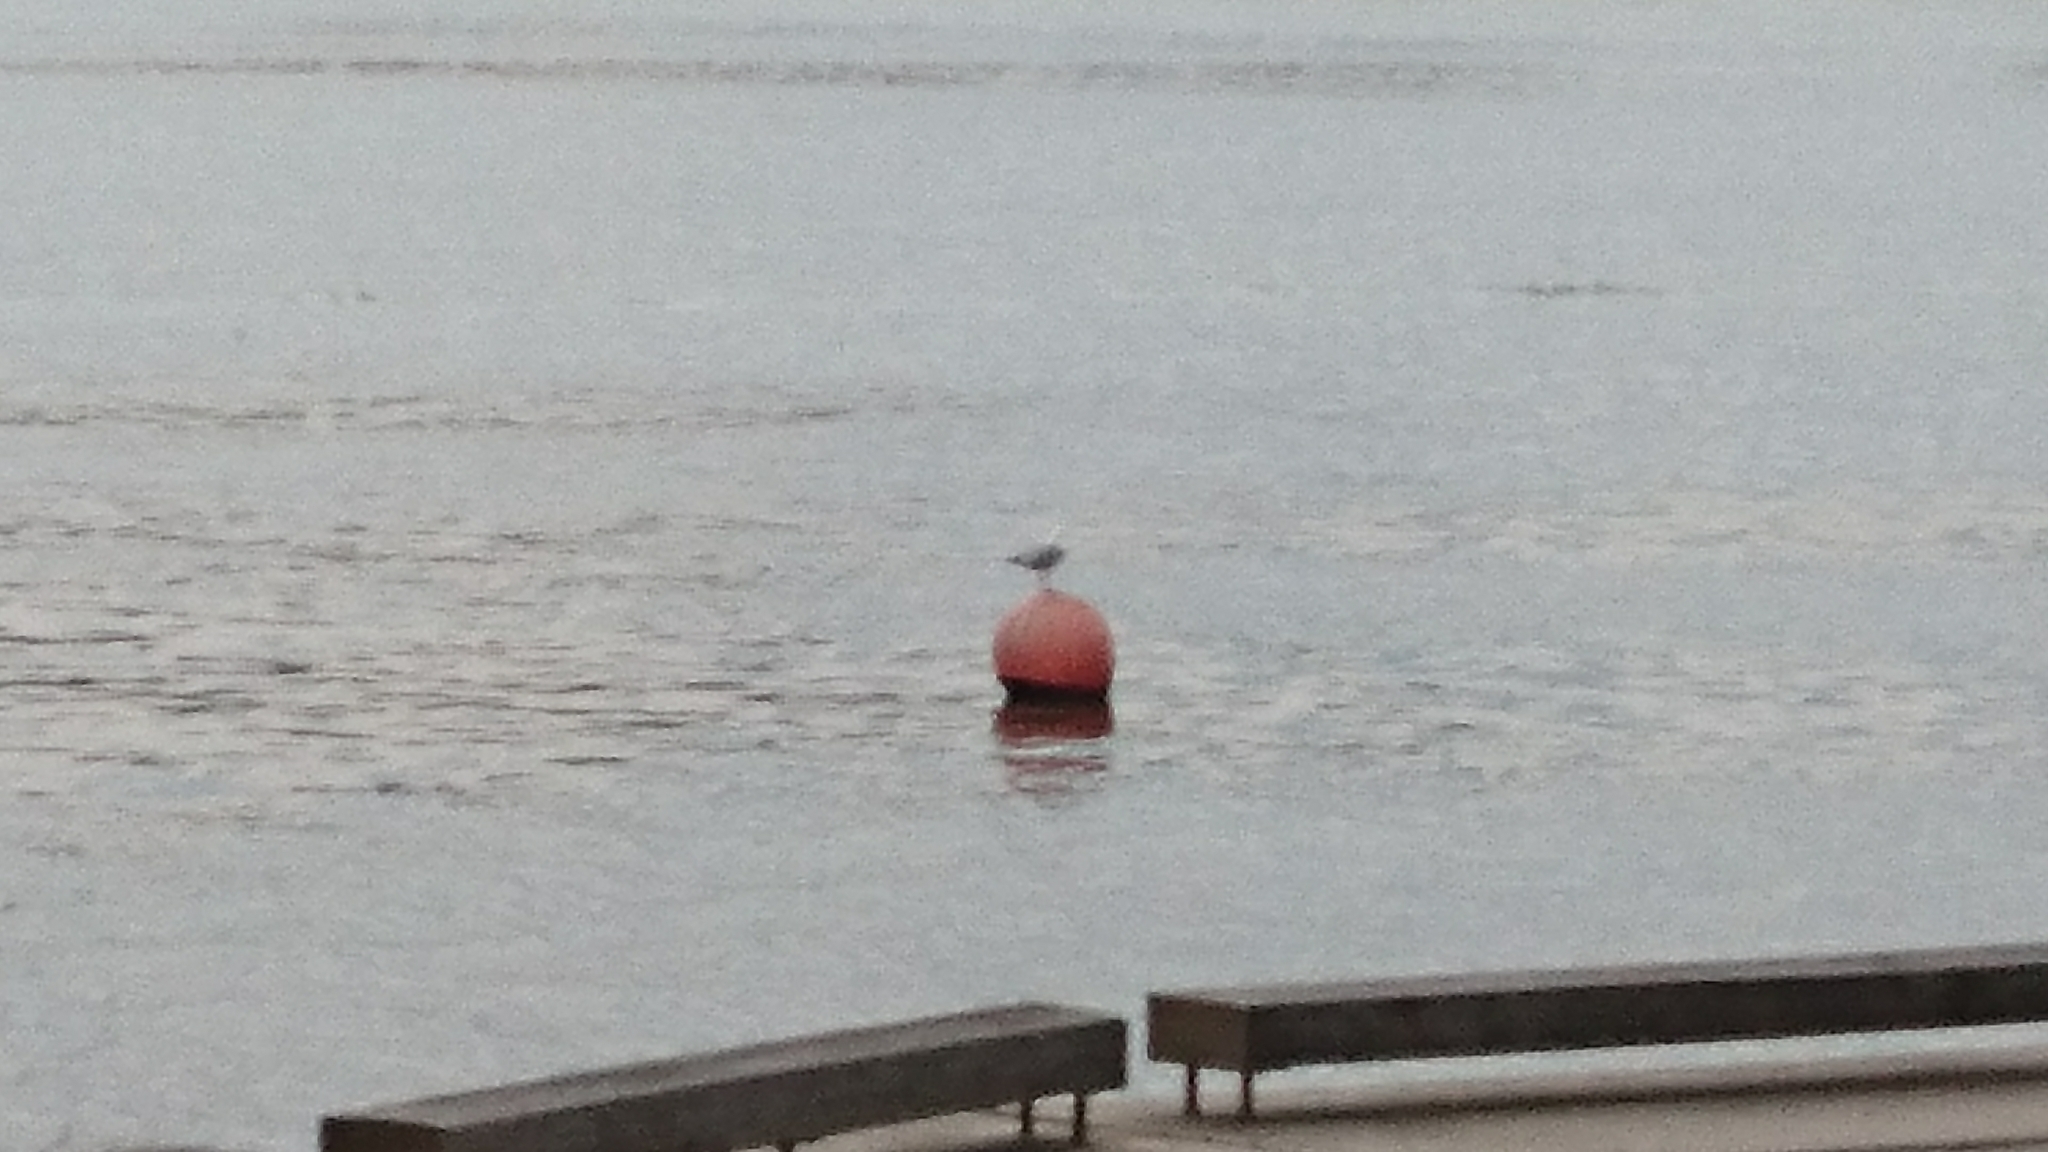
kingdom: Animalia
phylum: Chordata
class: Aves
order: Charadriiformes
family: Laridae
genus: Chroicocephalus
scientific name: Chroicocephalus novaehollandiae
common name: Silver gull
